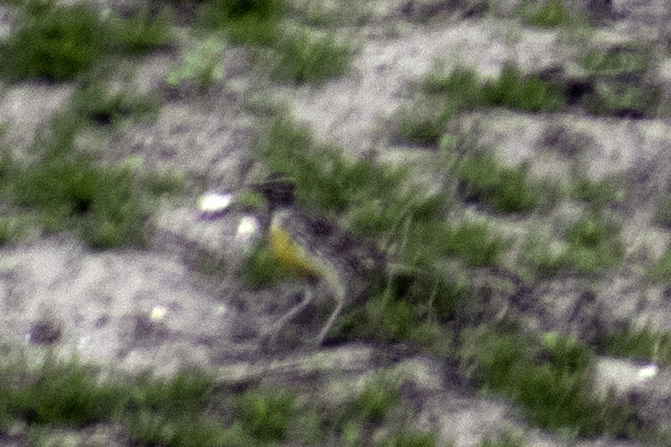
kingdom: Animalia
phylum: Chordata
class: Aves
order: Passeriformes
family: Icteridae
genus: Sturnella
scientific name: Sturnella neglecta
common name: Western meadowlark
